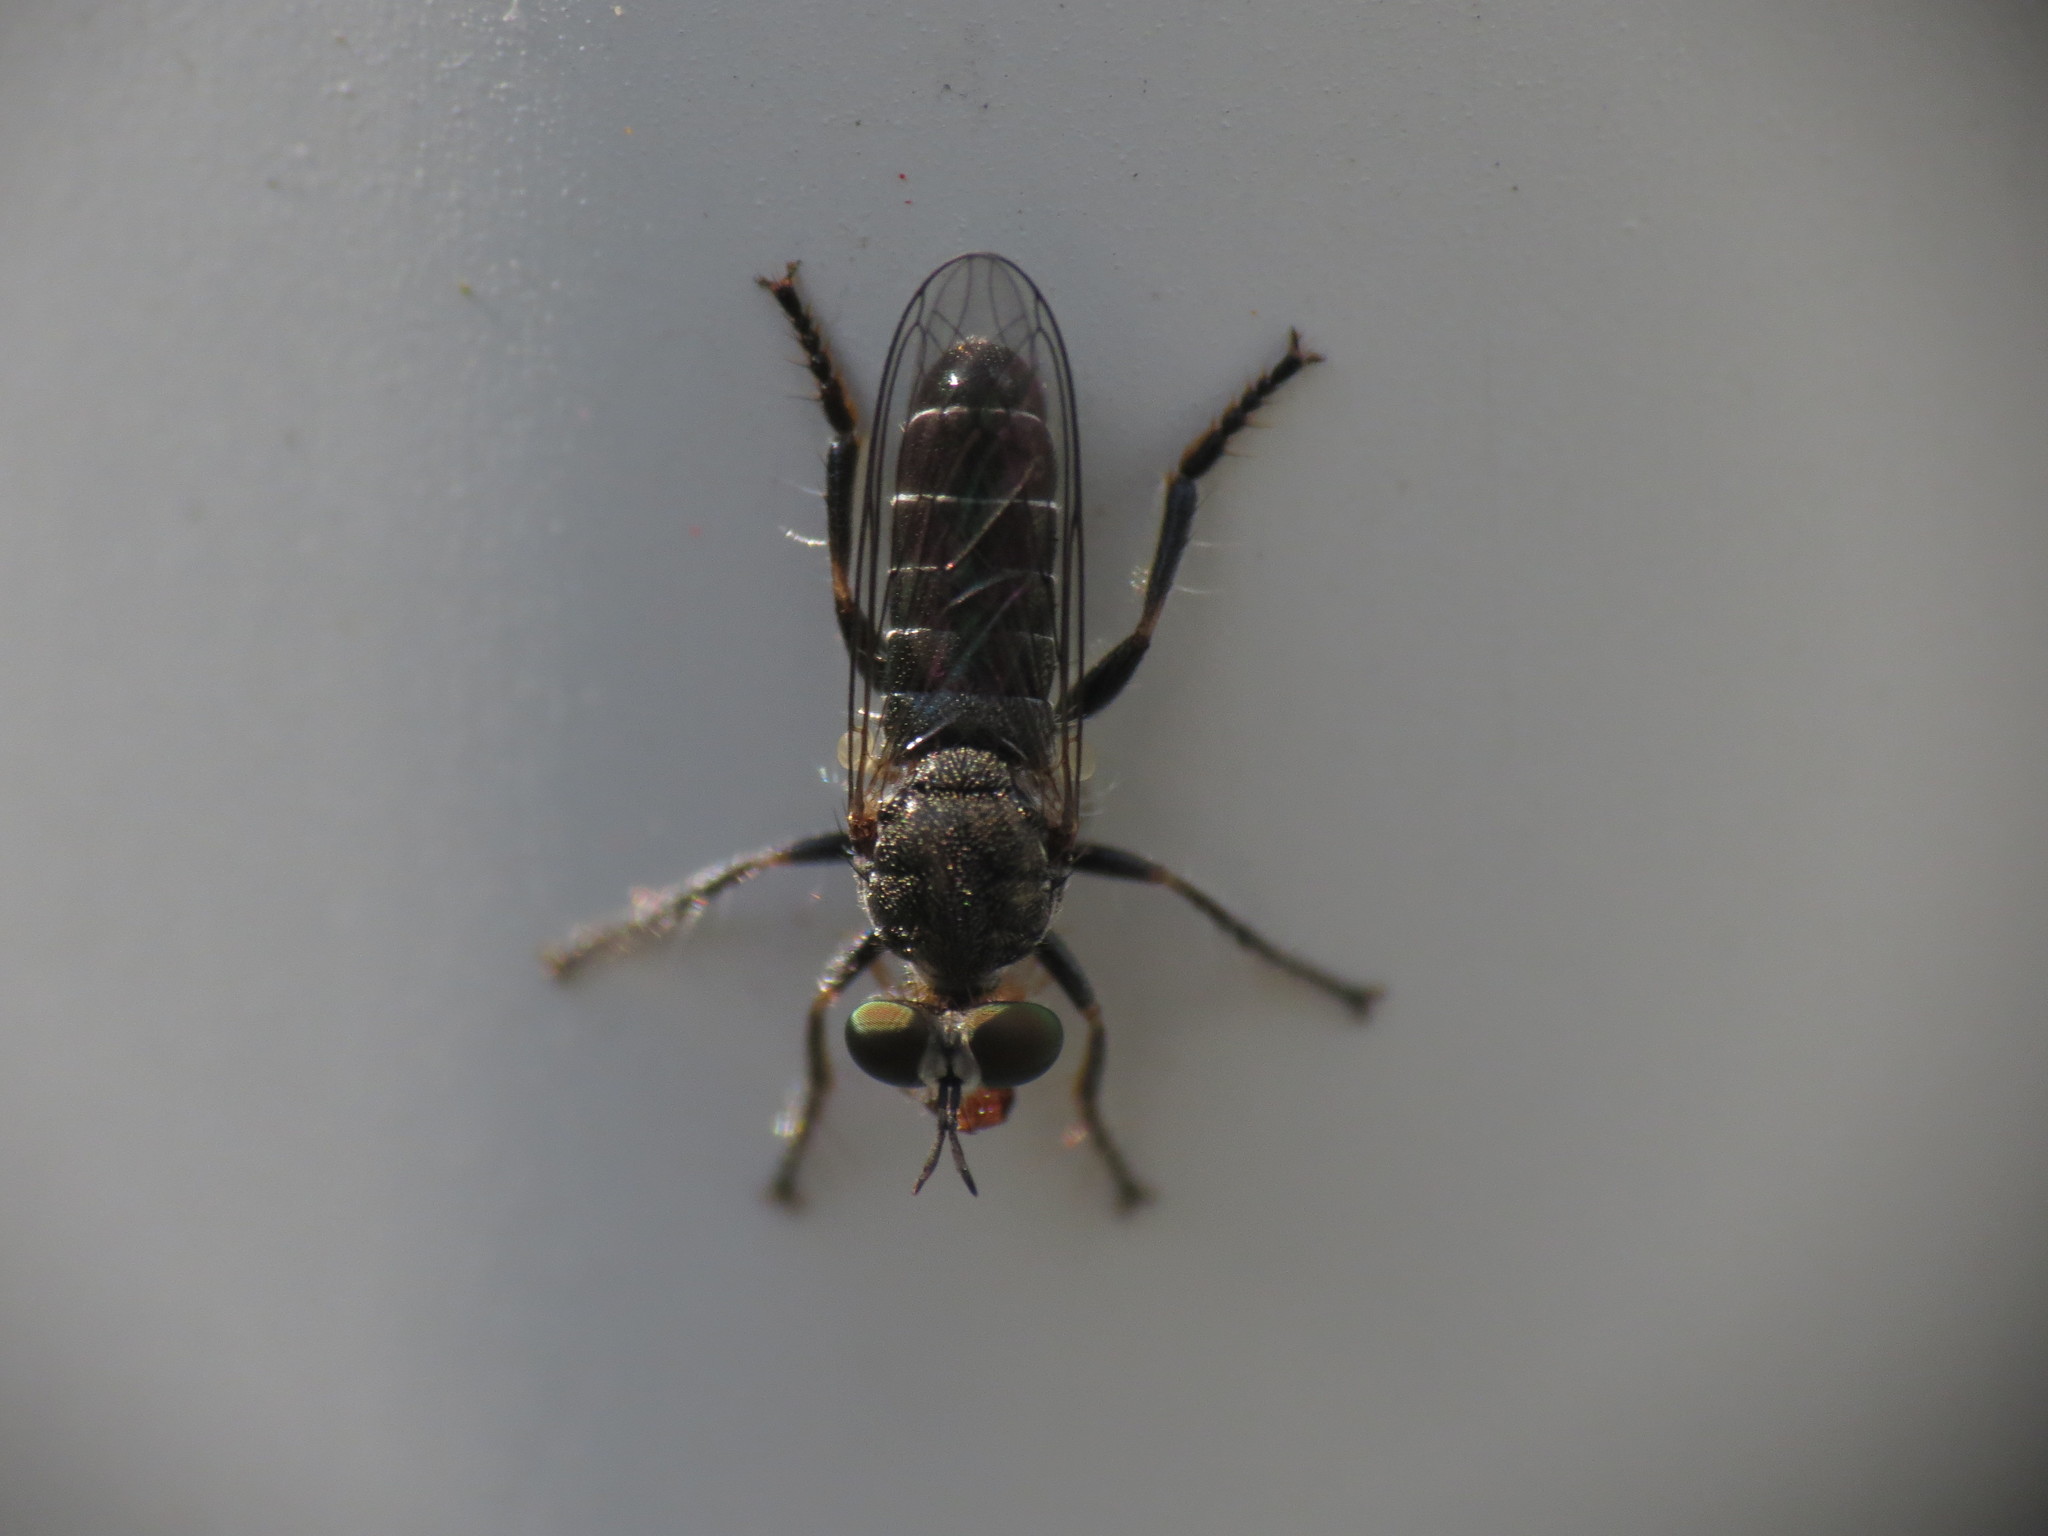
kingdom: Animalia
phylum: Arthropoda
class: Insecta
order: Diptera
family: Asilidae
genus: Atomosia
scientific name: Atomosia puella
